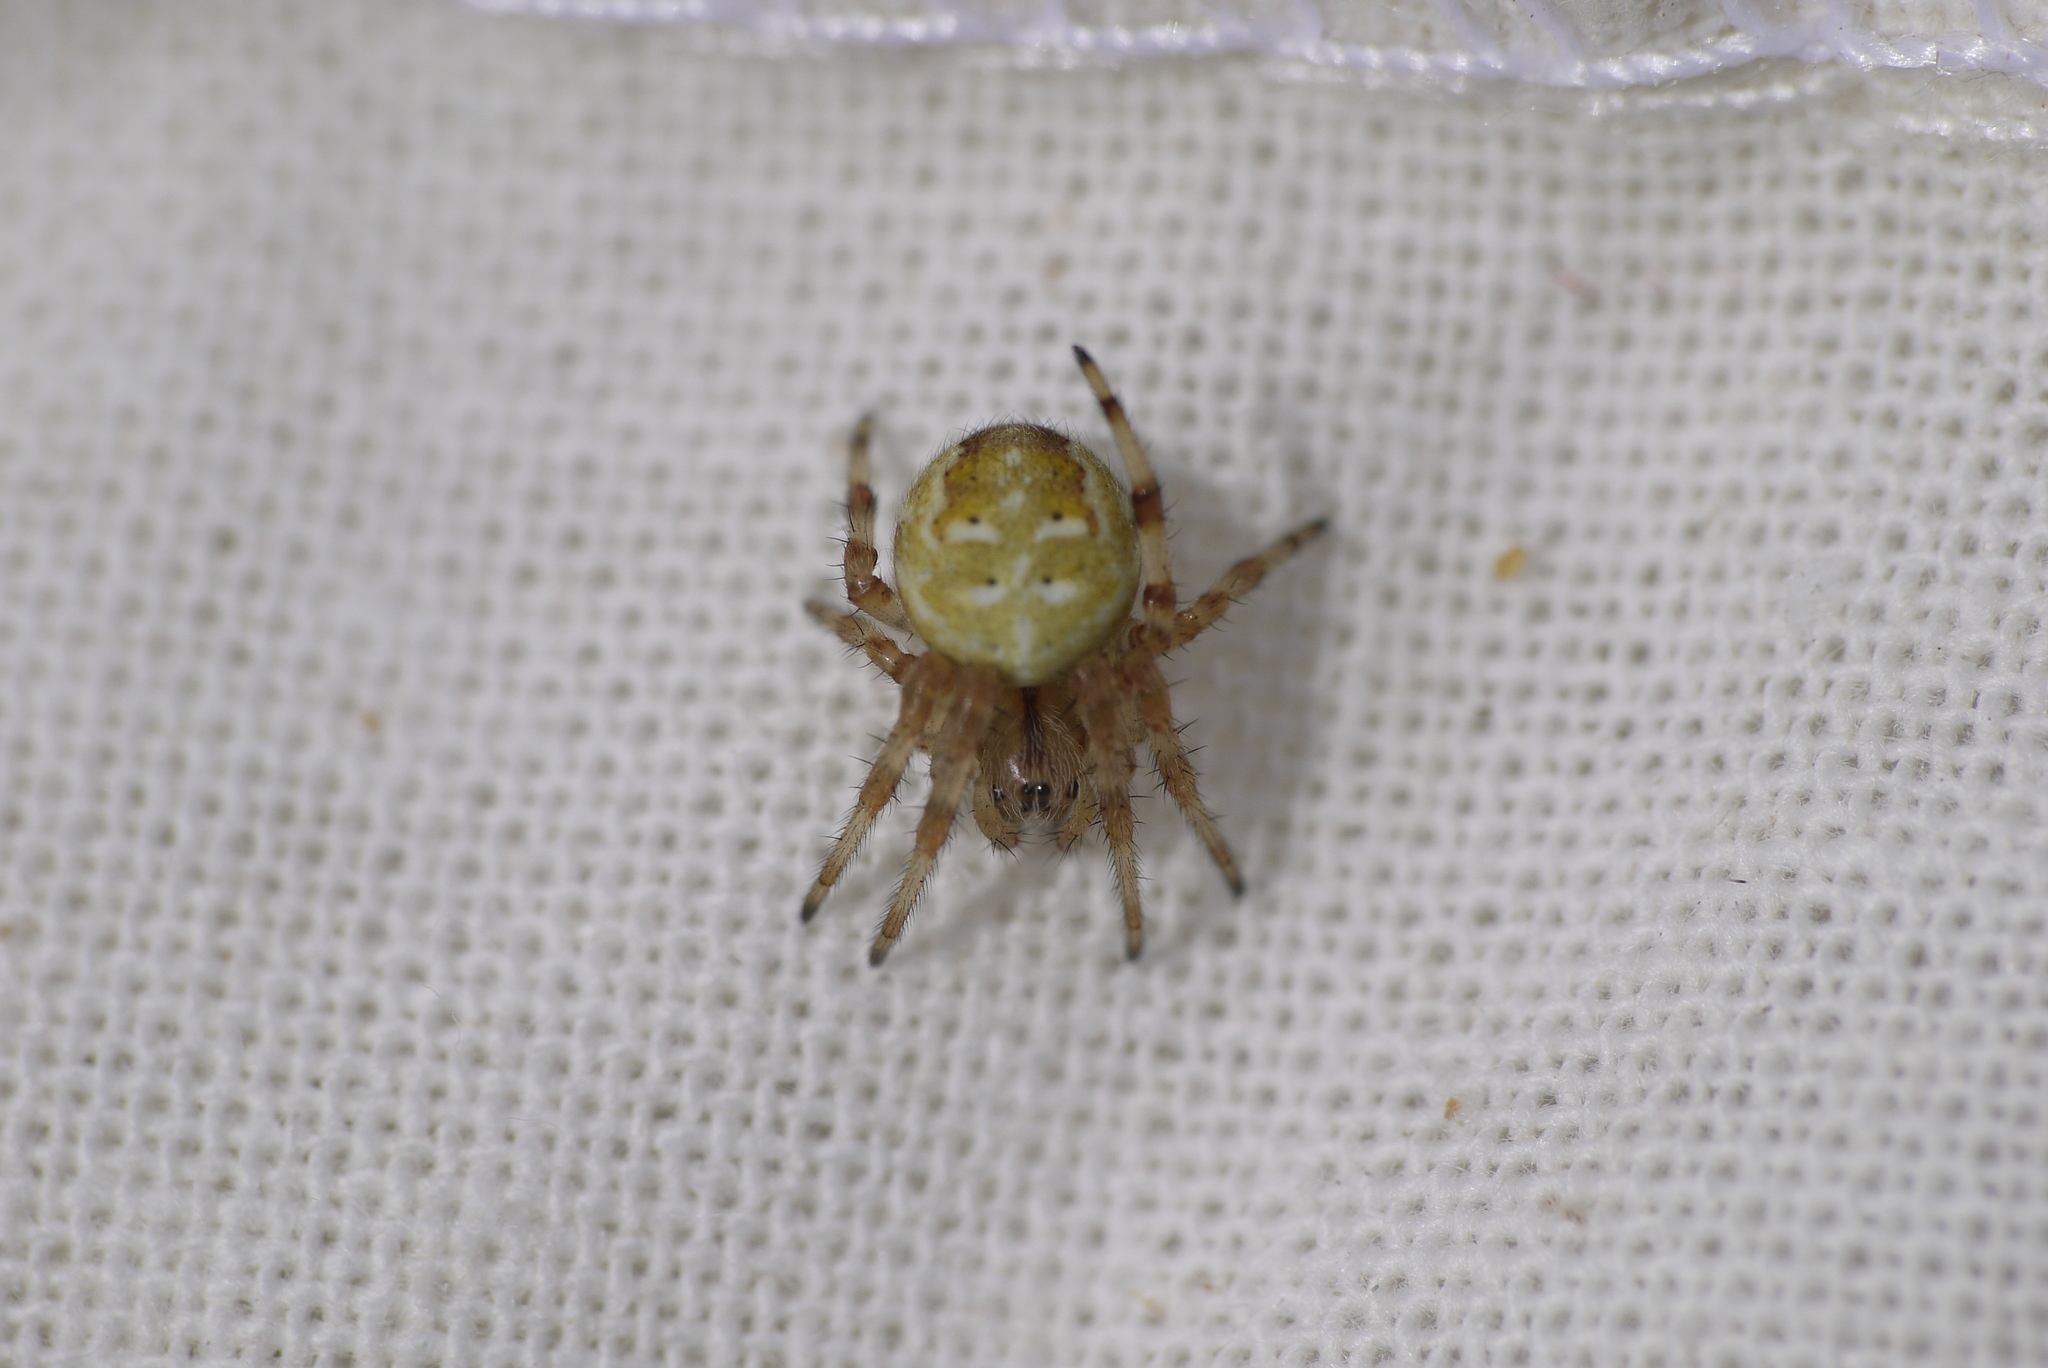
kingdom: Animalia
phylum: Arthropoda
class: Arachnida
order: Araneae
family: Araneidae
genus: Araneus
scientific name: Araneus quadratus
